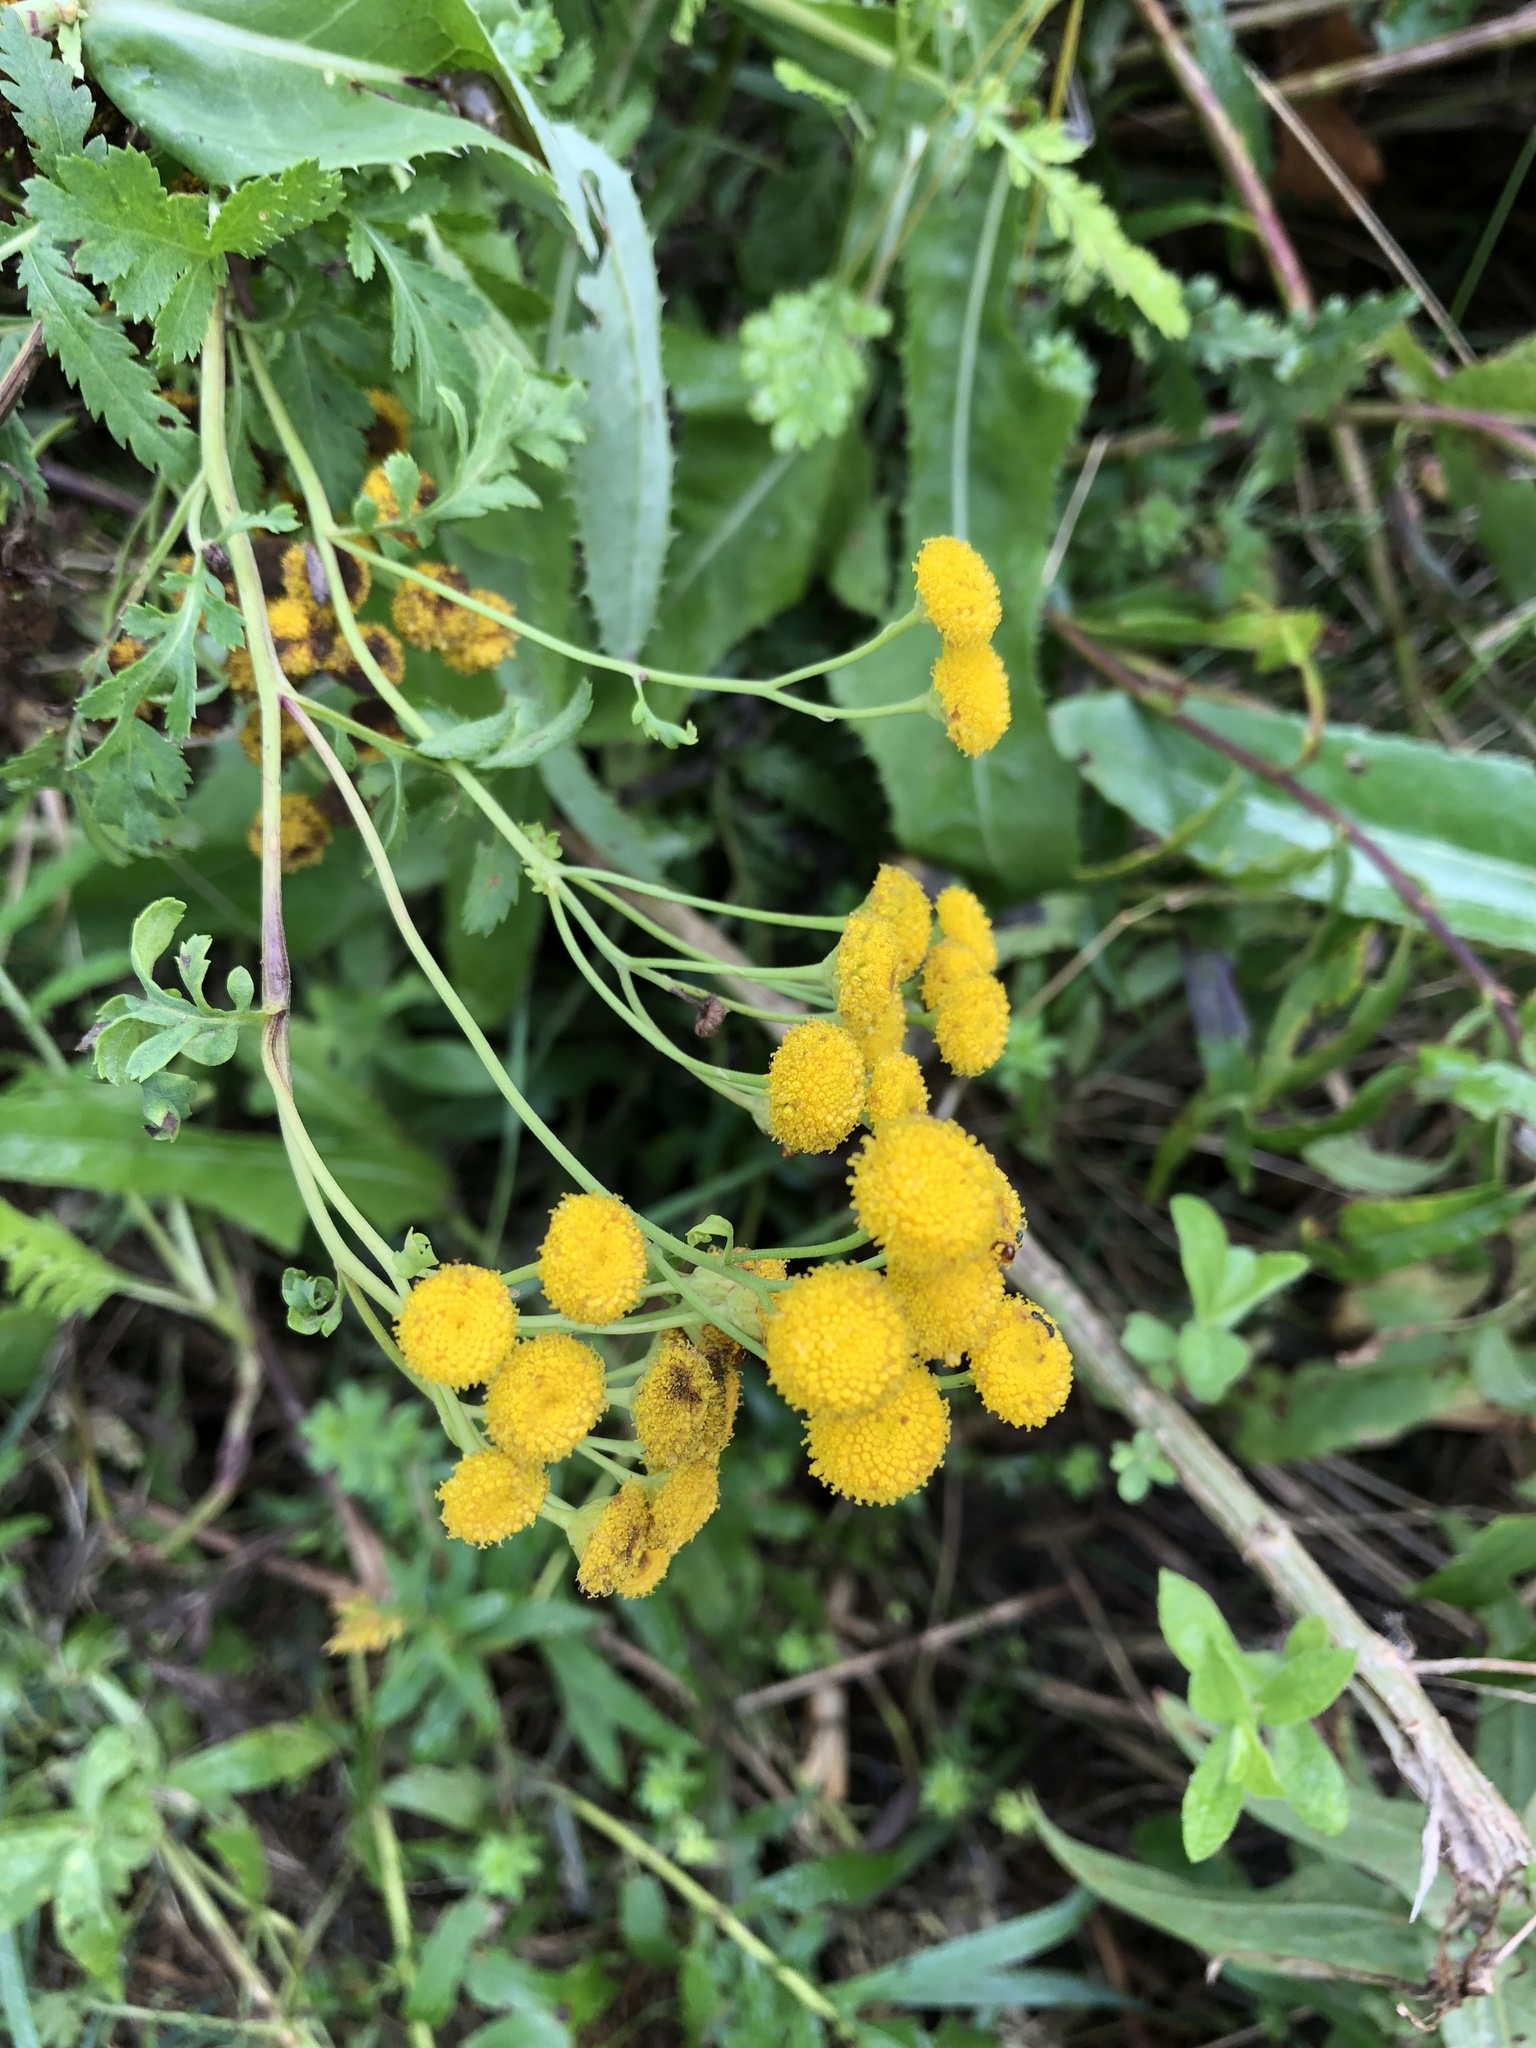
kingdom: Plantae
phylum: Tracheophyta
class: Magnoliopsida
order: Asterales
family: Asteraceae
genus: Tanacetum
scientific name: Tanacetum vulgare
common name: Common tansy
